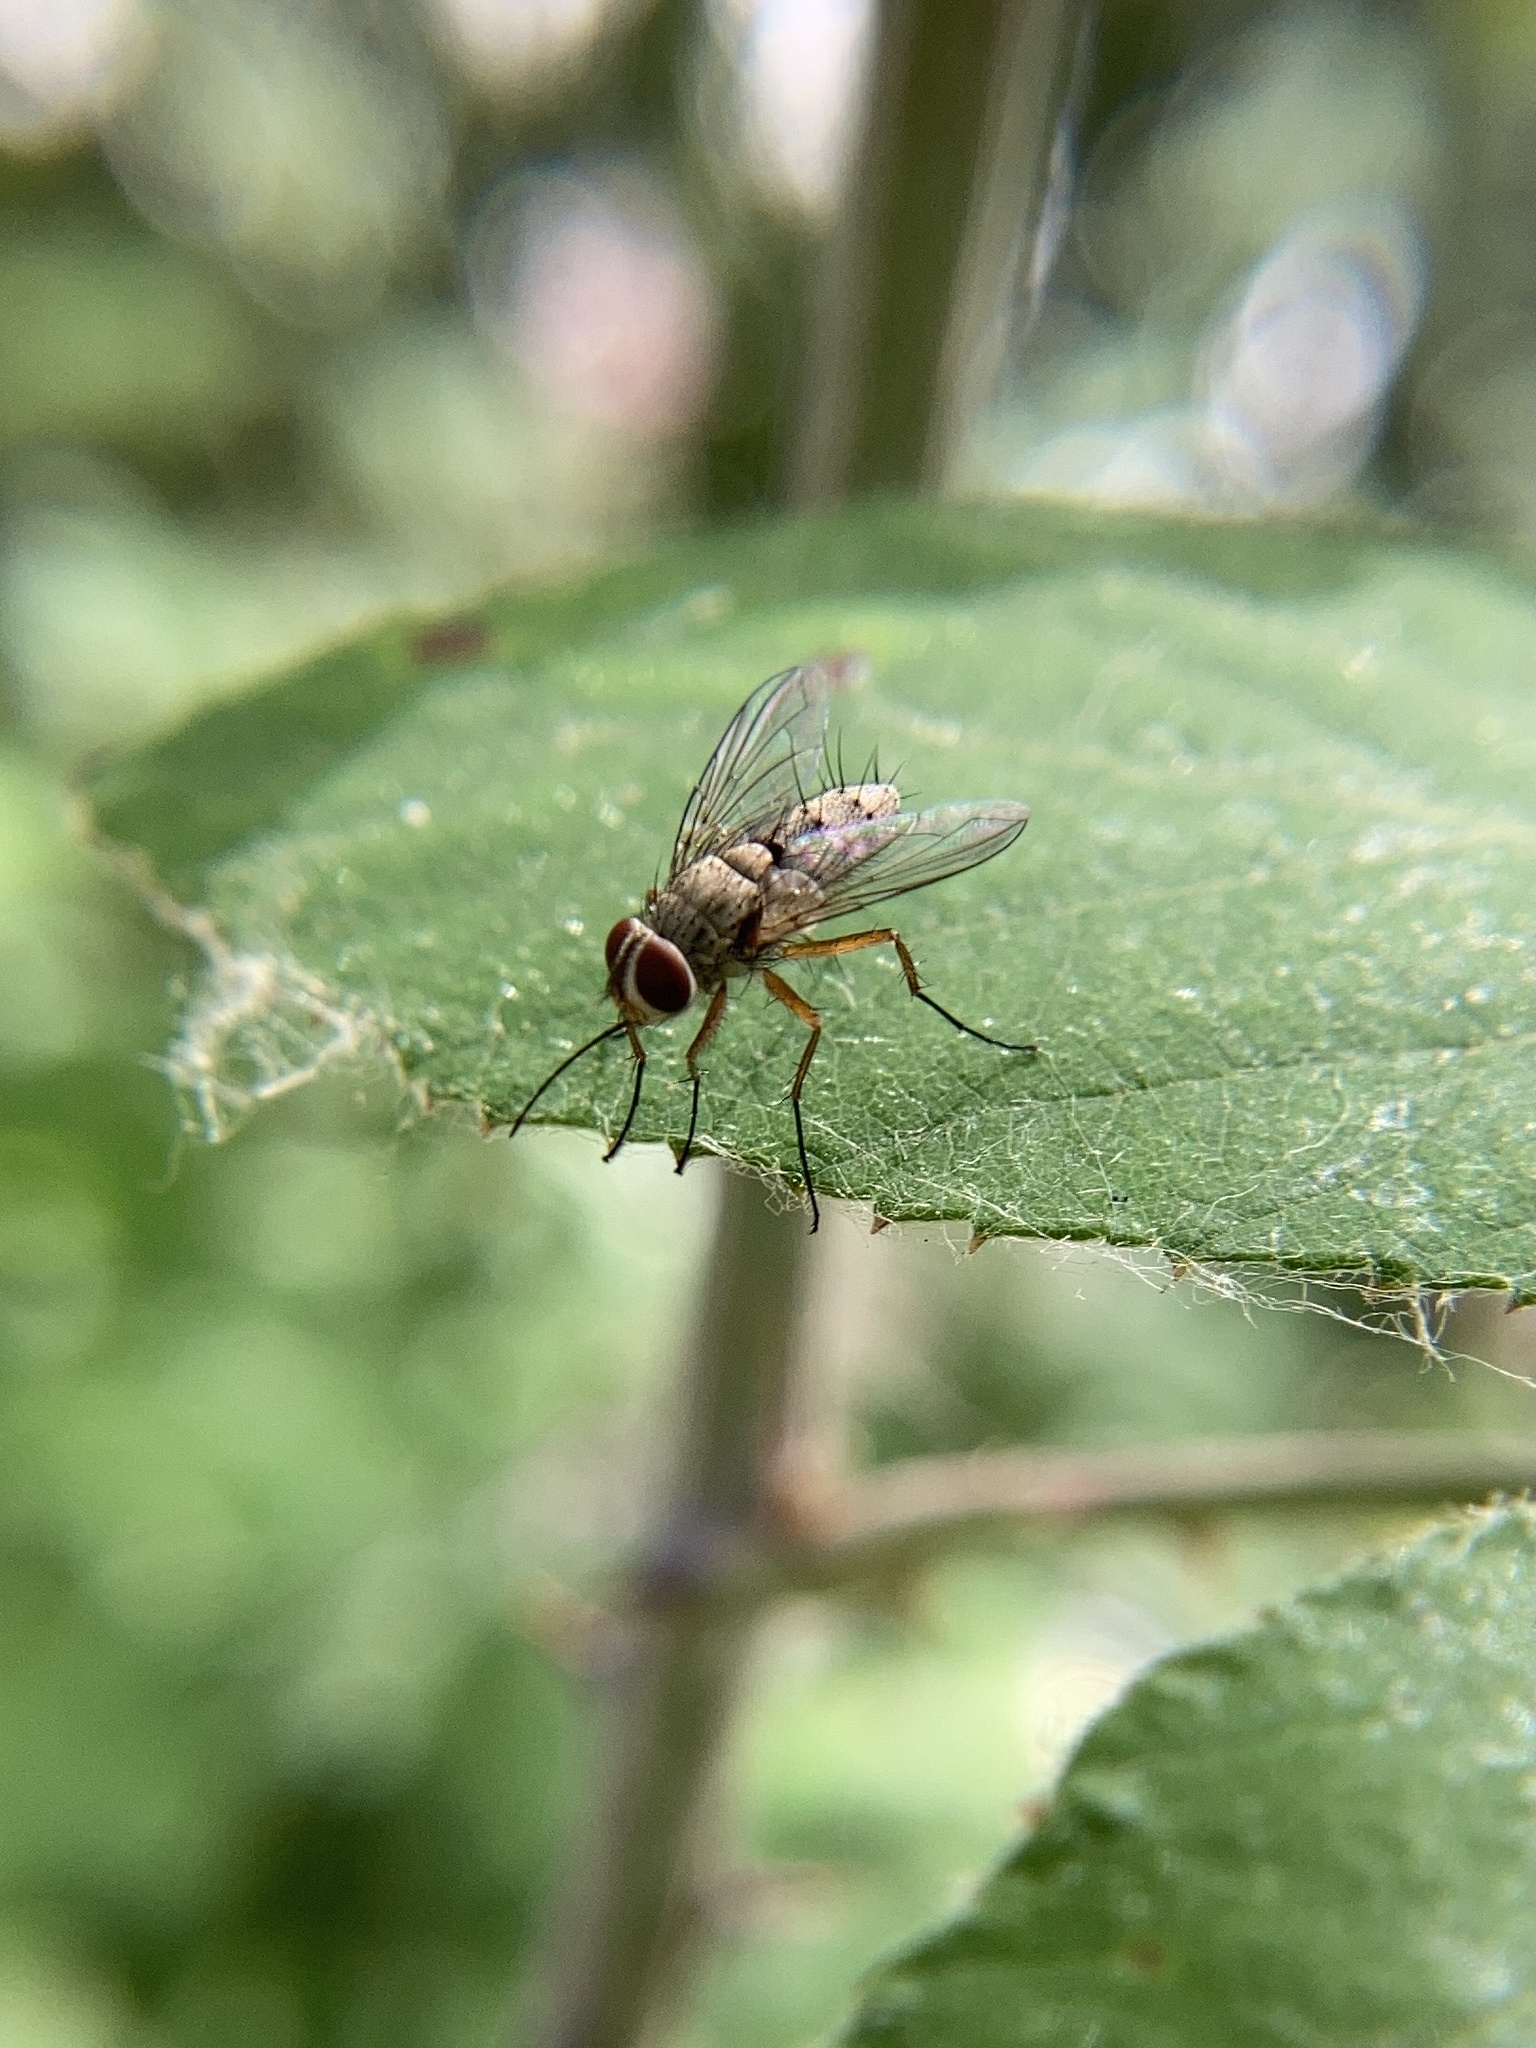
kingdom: Animalia
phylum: Arthropoda
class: Insecta
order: Diptera
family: Tachinidae
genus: Prosena
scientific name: Prosena siberita
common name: Parasitic fly
